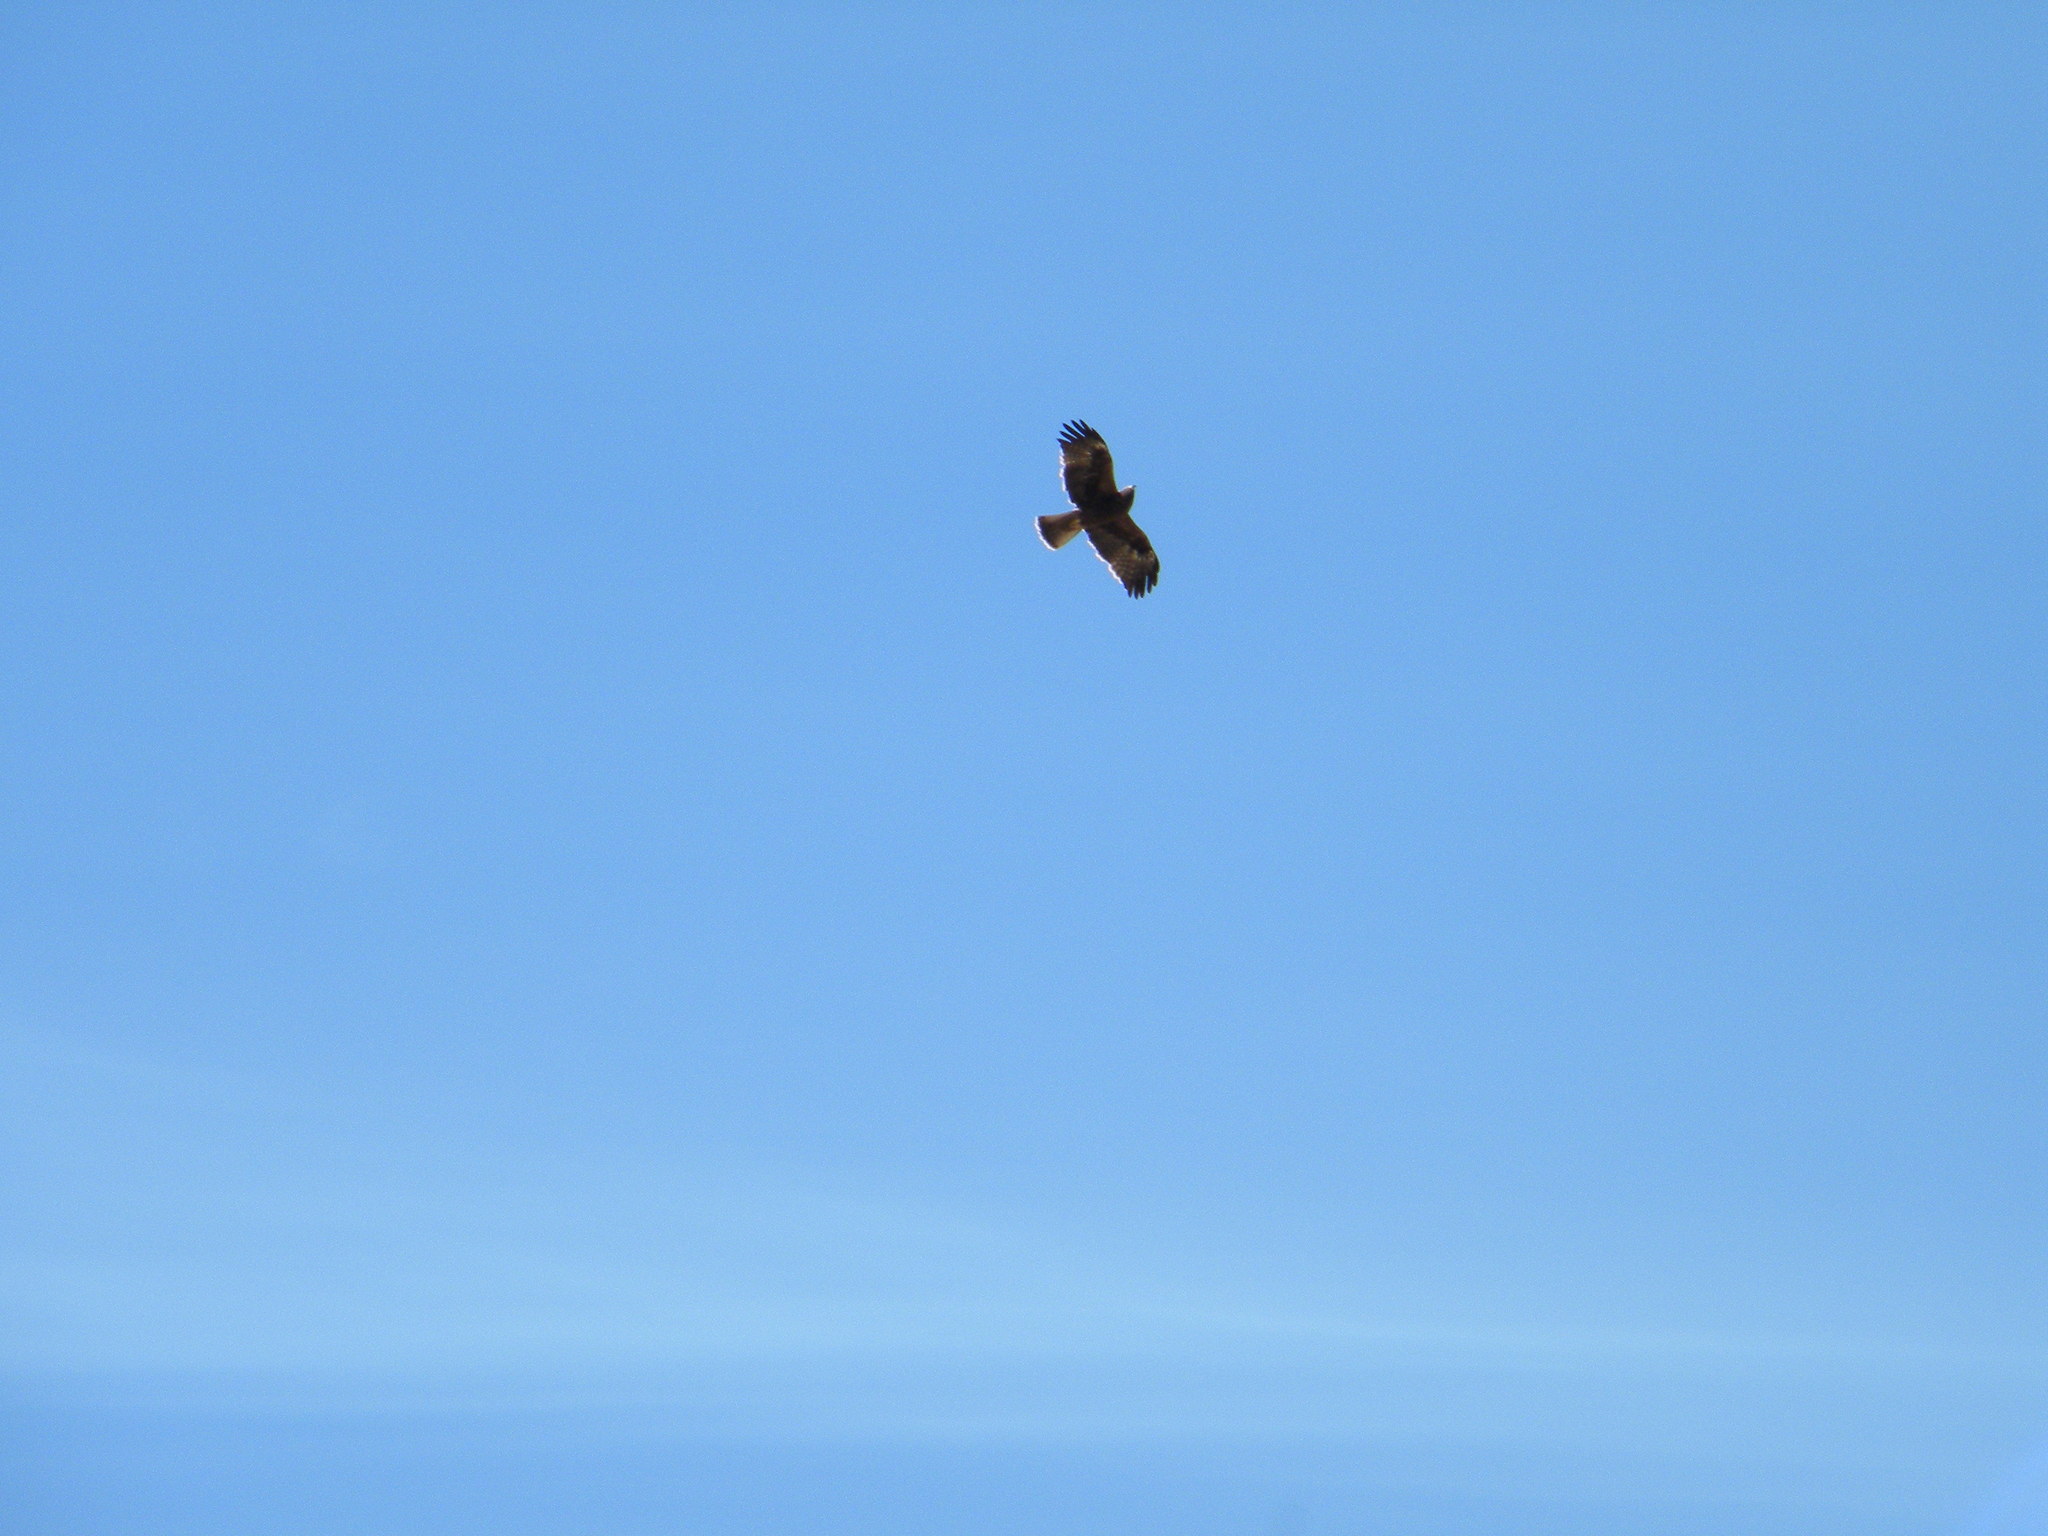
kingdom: Animalia
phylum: Chordata
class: Aves
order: Accipitriformes
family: Accipitridae
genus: Hieraaetus
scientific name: Hieraaetus pennatus
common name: Booted eagle
